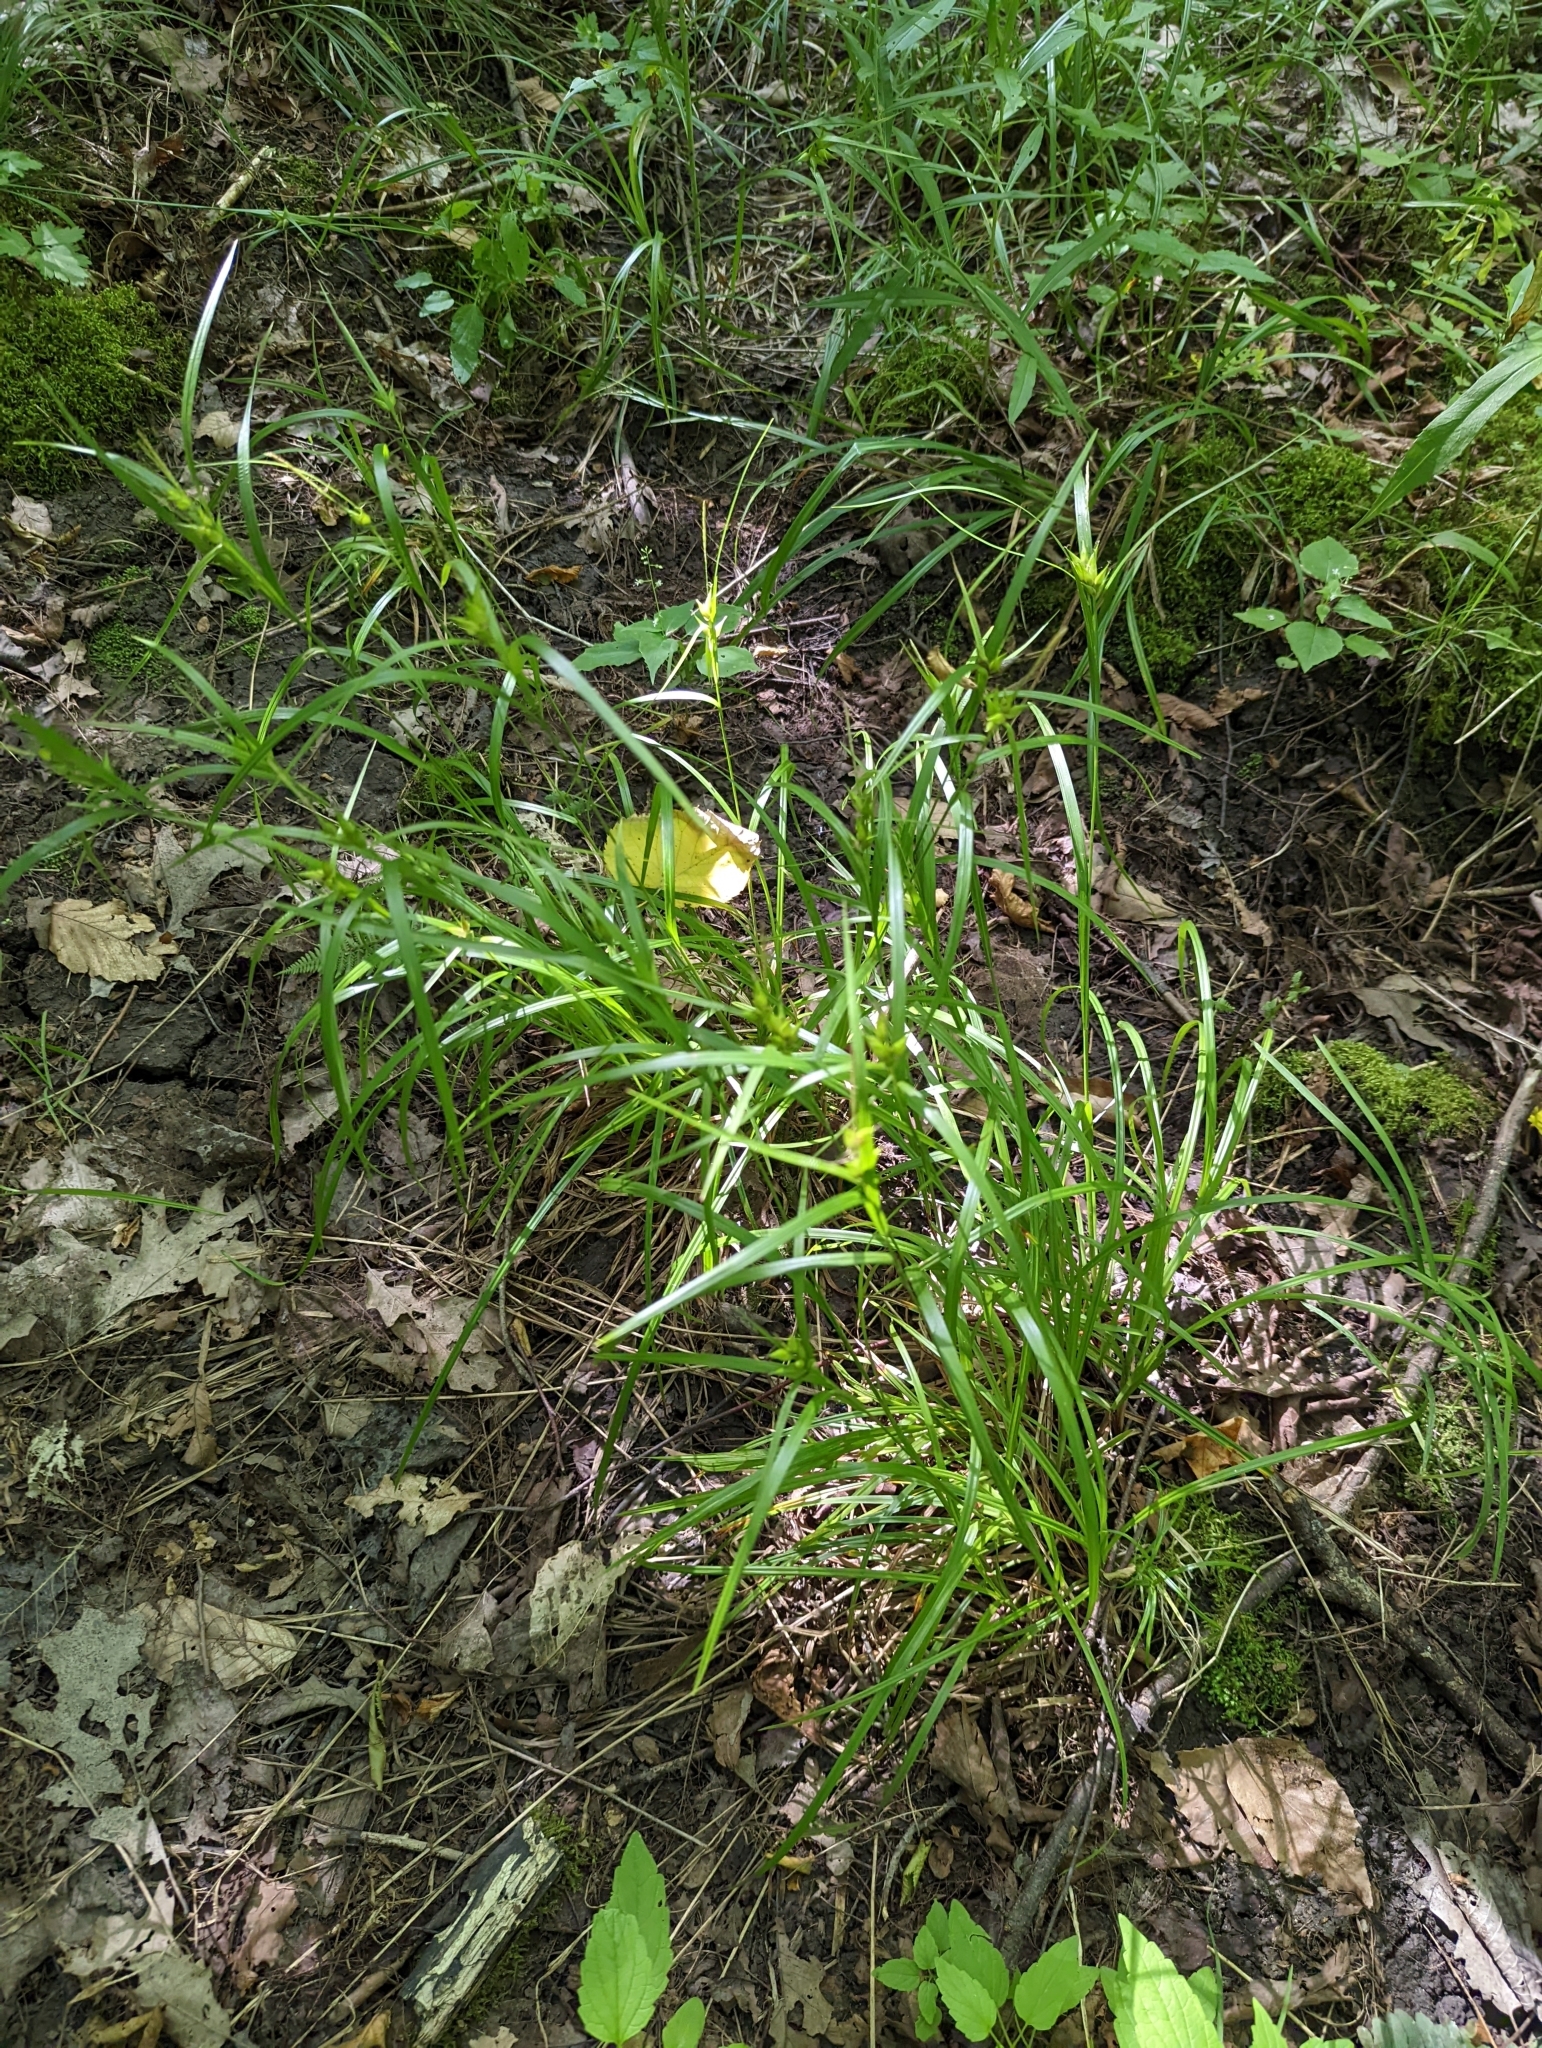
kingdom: Plantae
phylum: Tracheophyta
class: Liliopsida
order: Poales
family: Cyperaceae
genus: Carex
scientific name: Carex intumescens
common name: Greater bladder sedge
